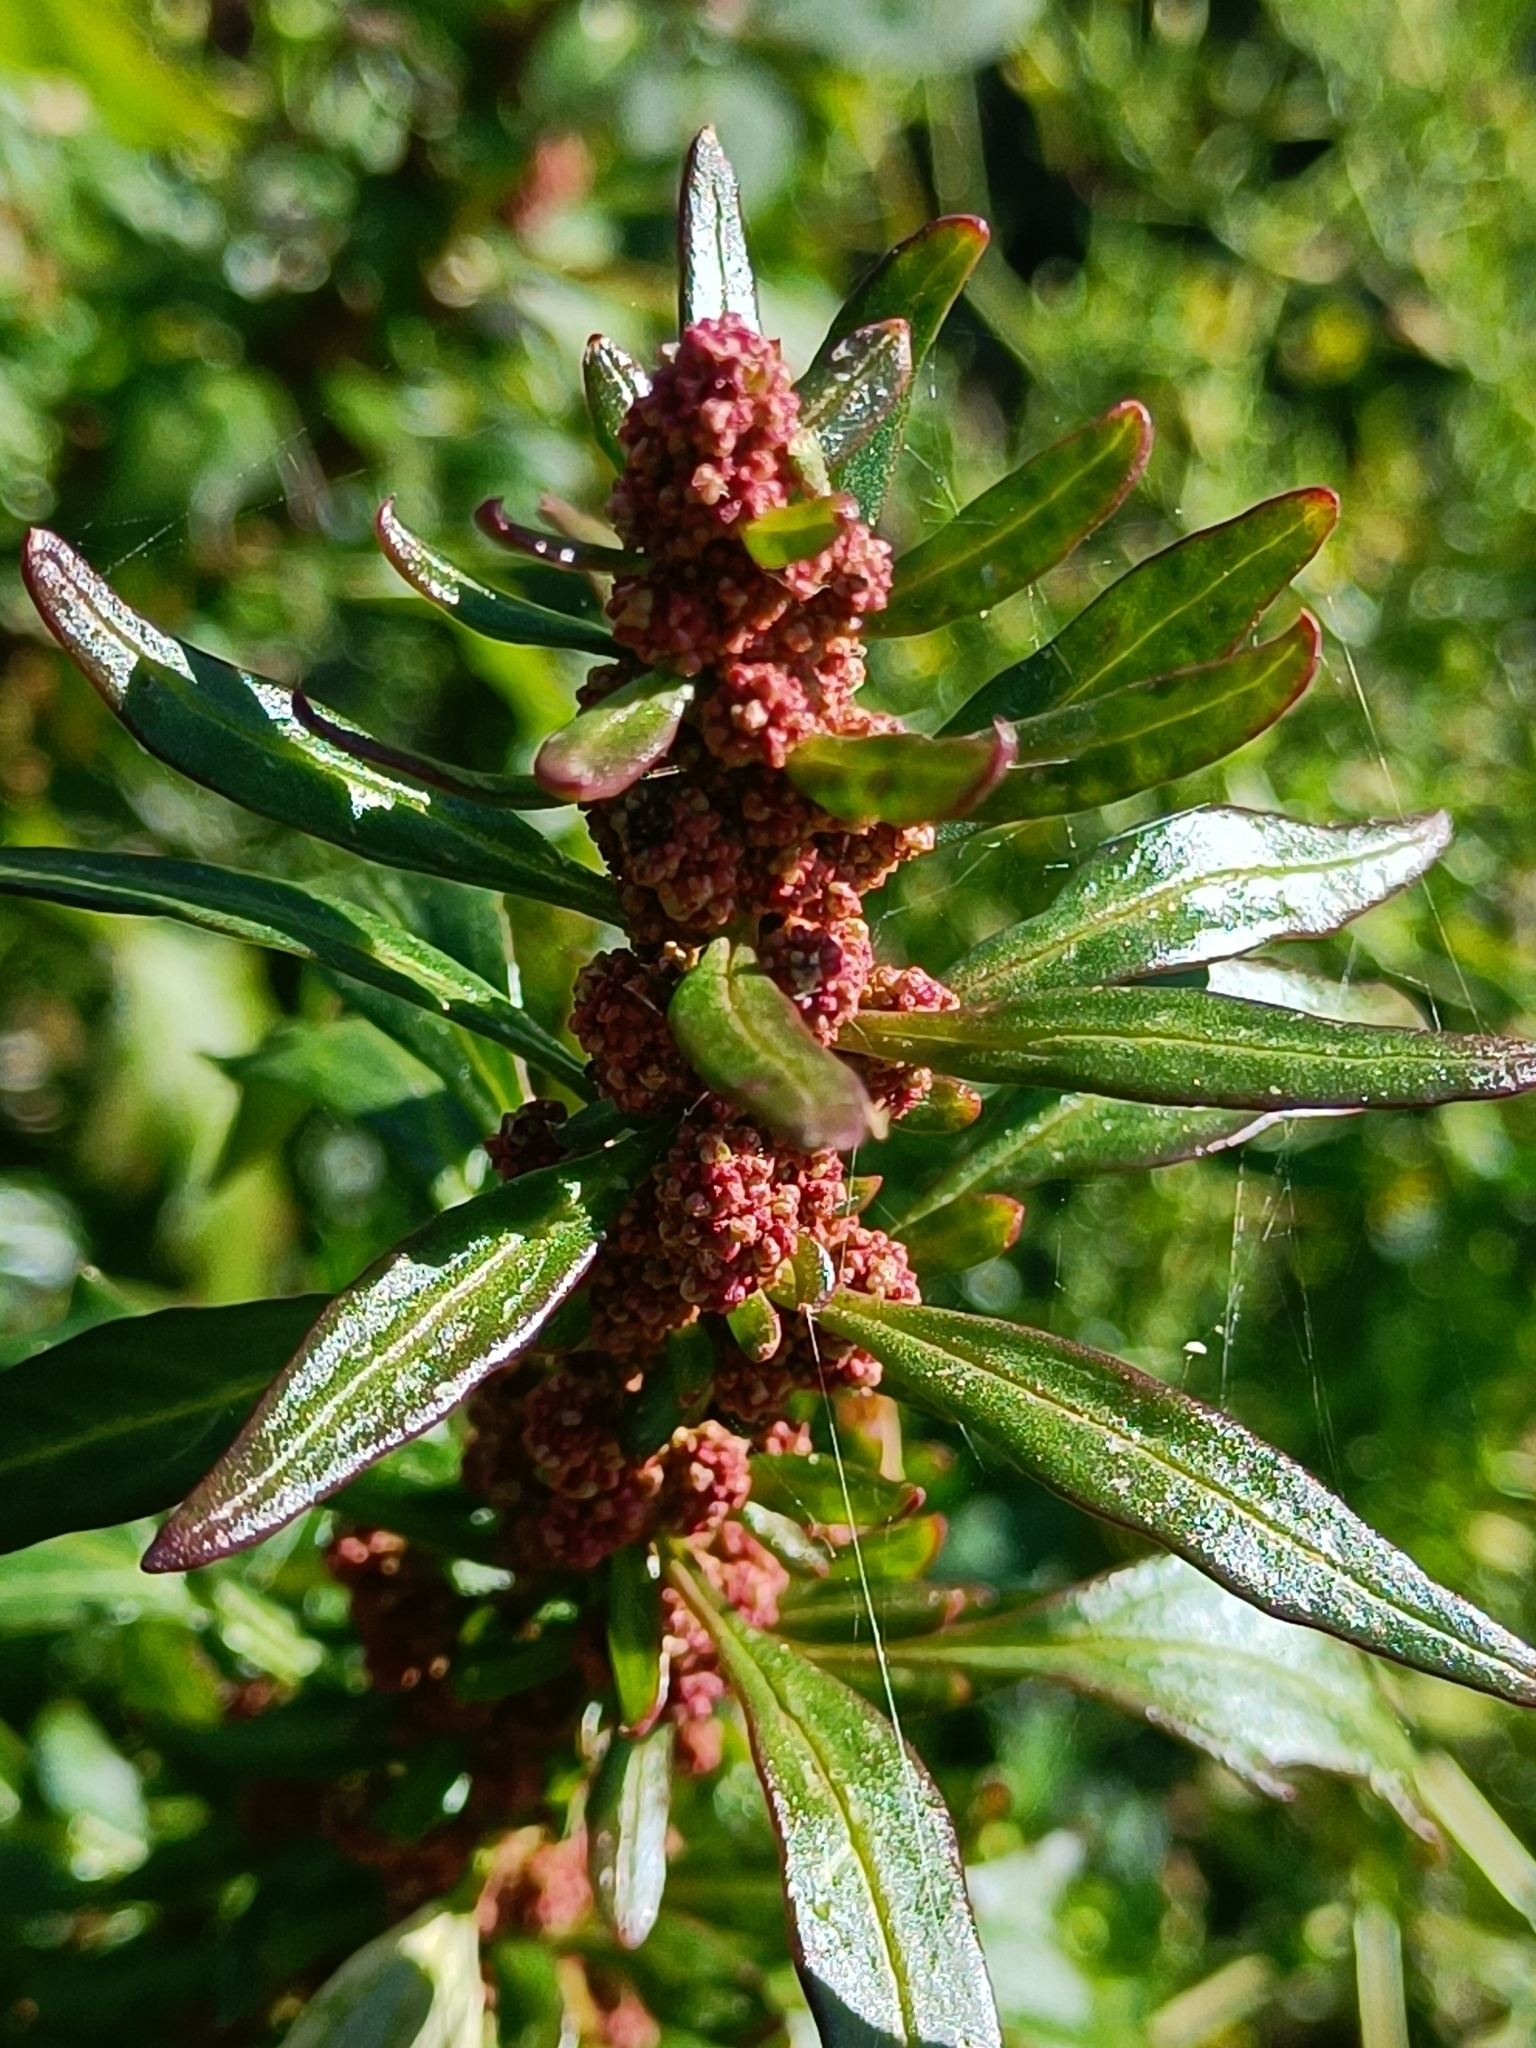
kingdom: Plantae
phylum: Tracheophyta
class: Magnoliopsida
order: Caryophyllales
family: Amaranthaceae
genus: Oxybasis
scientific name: Oxybasis rubra
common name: Red goosefoot
